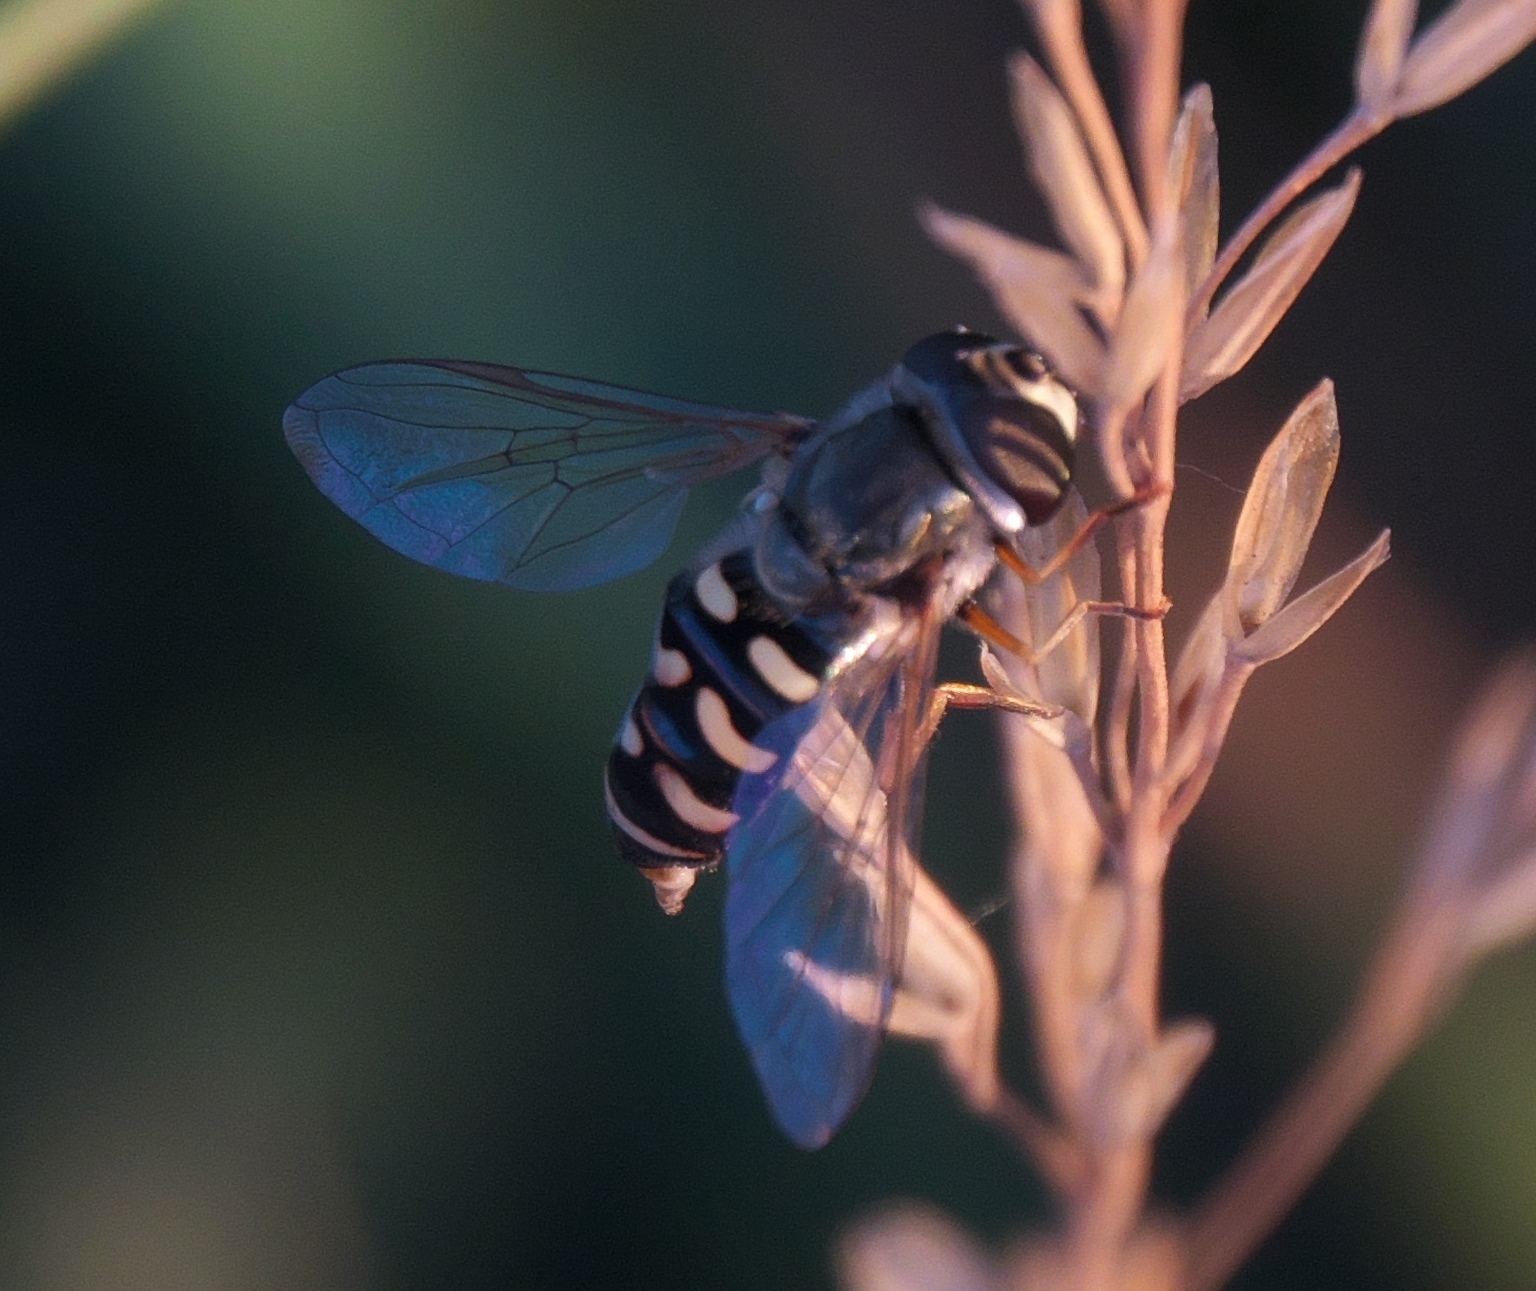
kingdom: Animalia
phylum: Arthropoda
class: Insecta
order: Diptera
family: Syrphidae
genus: Eupeodes
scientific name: Eupeodes volucris
